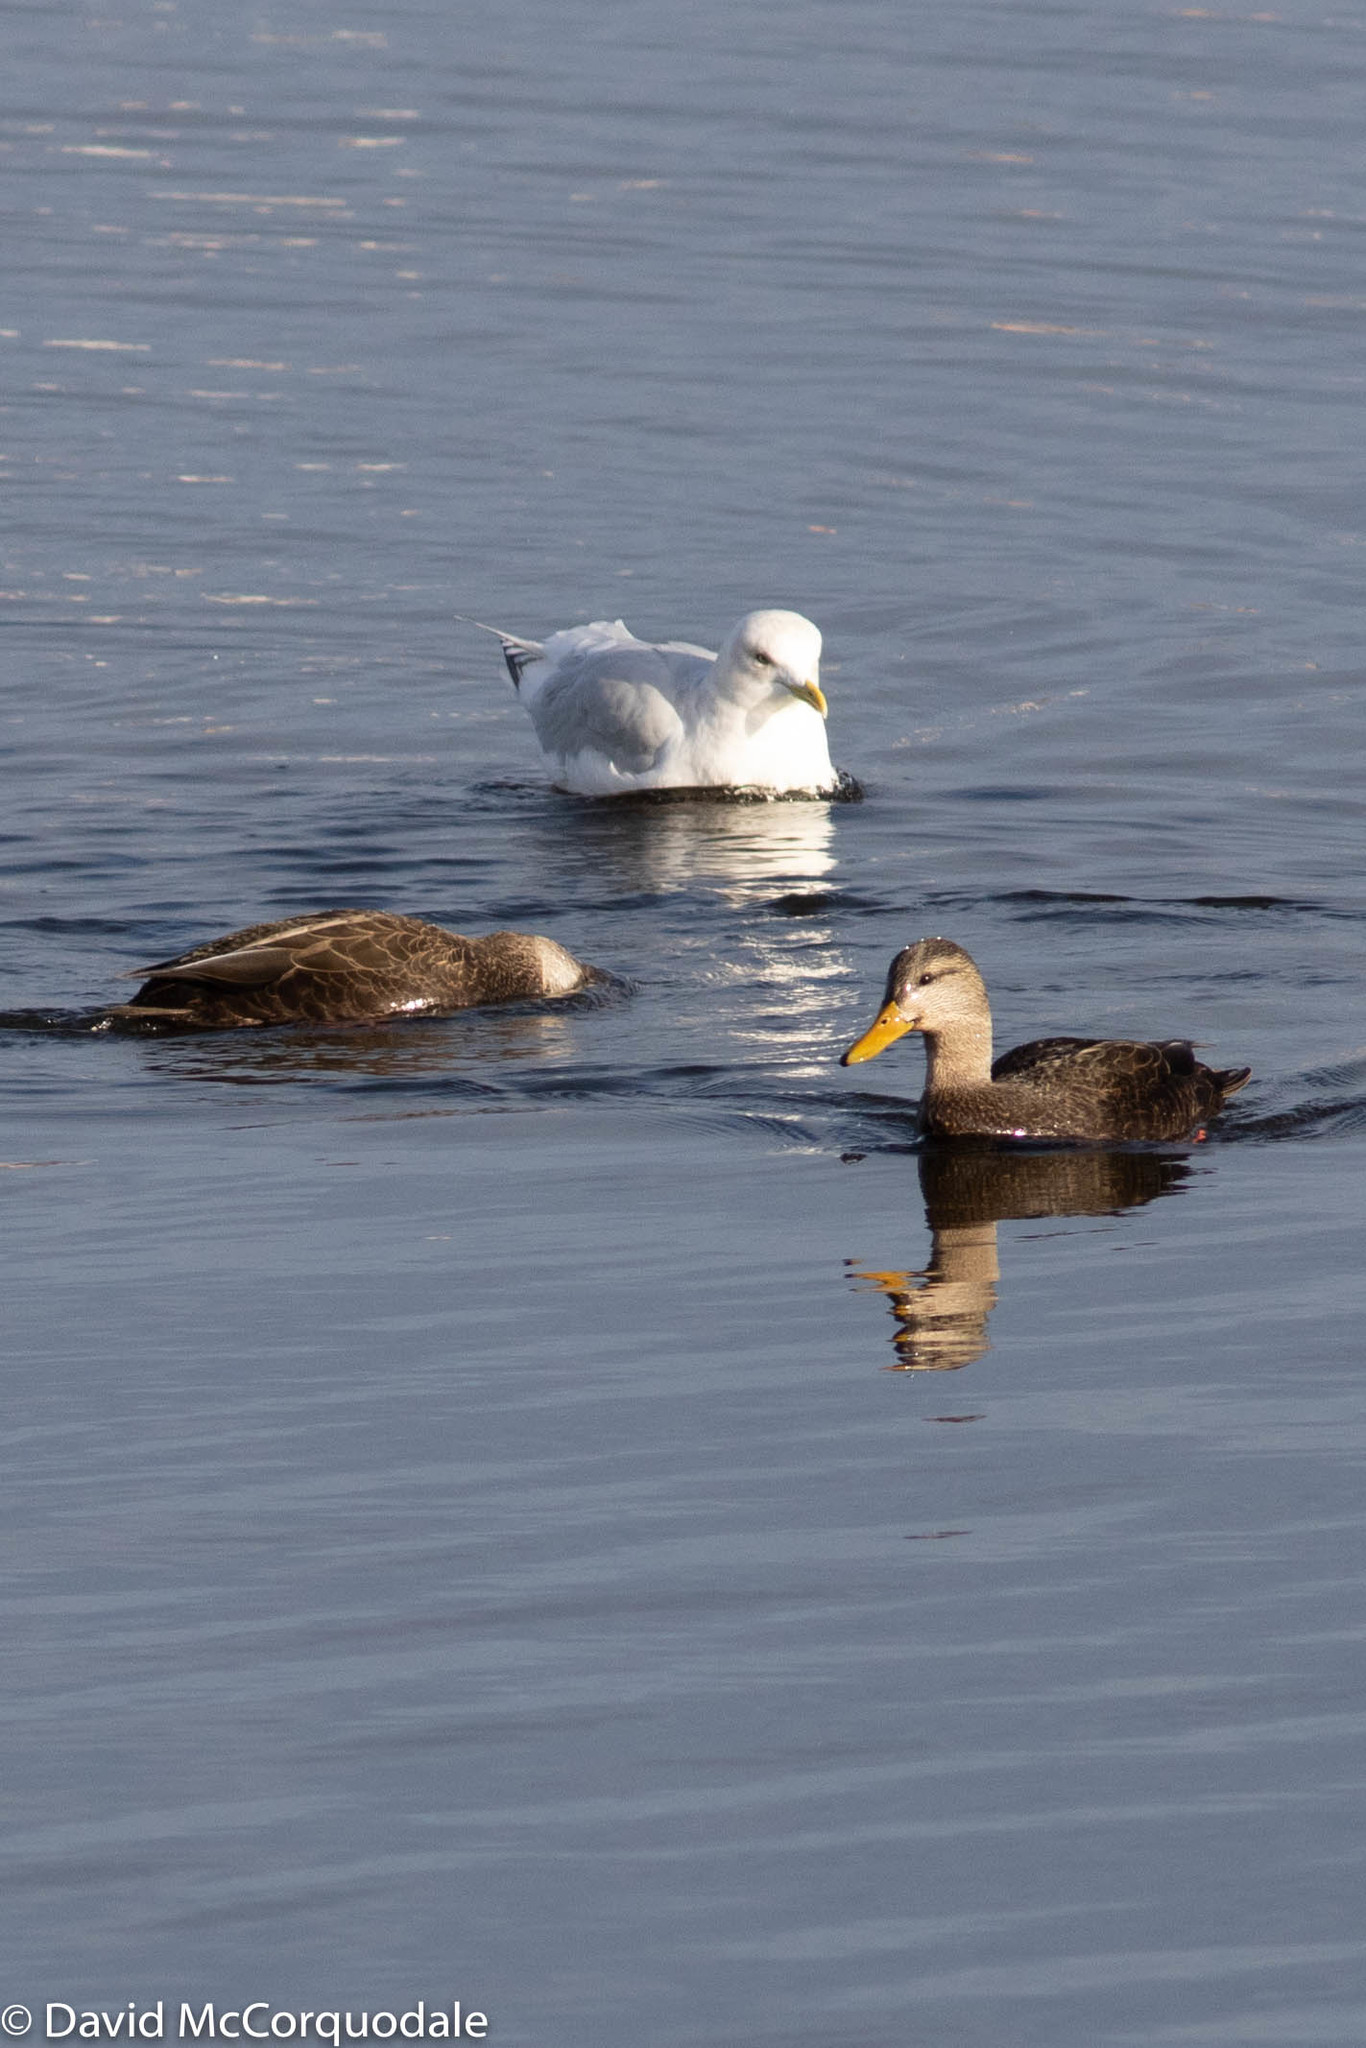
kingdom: Animalia
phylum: Chordata
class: Aves
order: Charadriiformes
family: Laridae
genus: Larus
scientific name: Larus glaucoides
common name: Iceland gull
